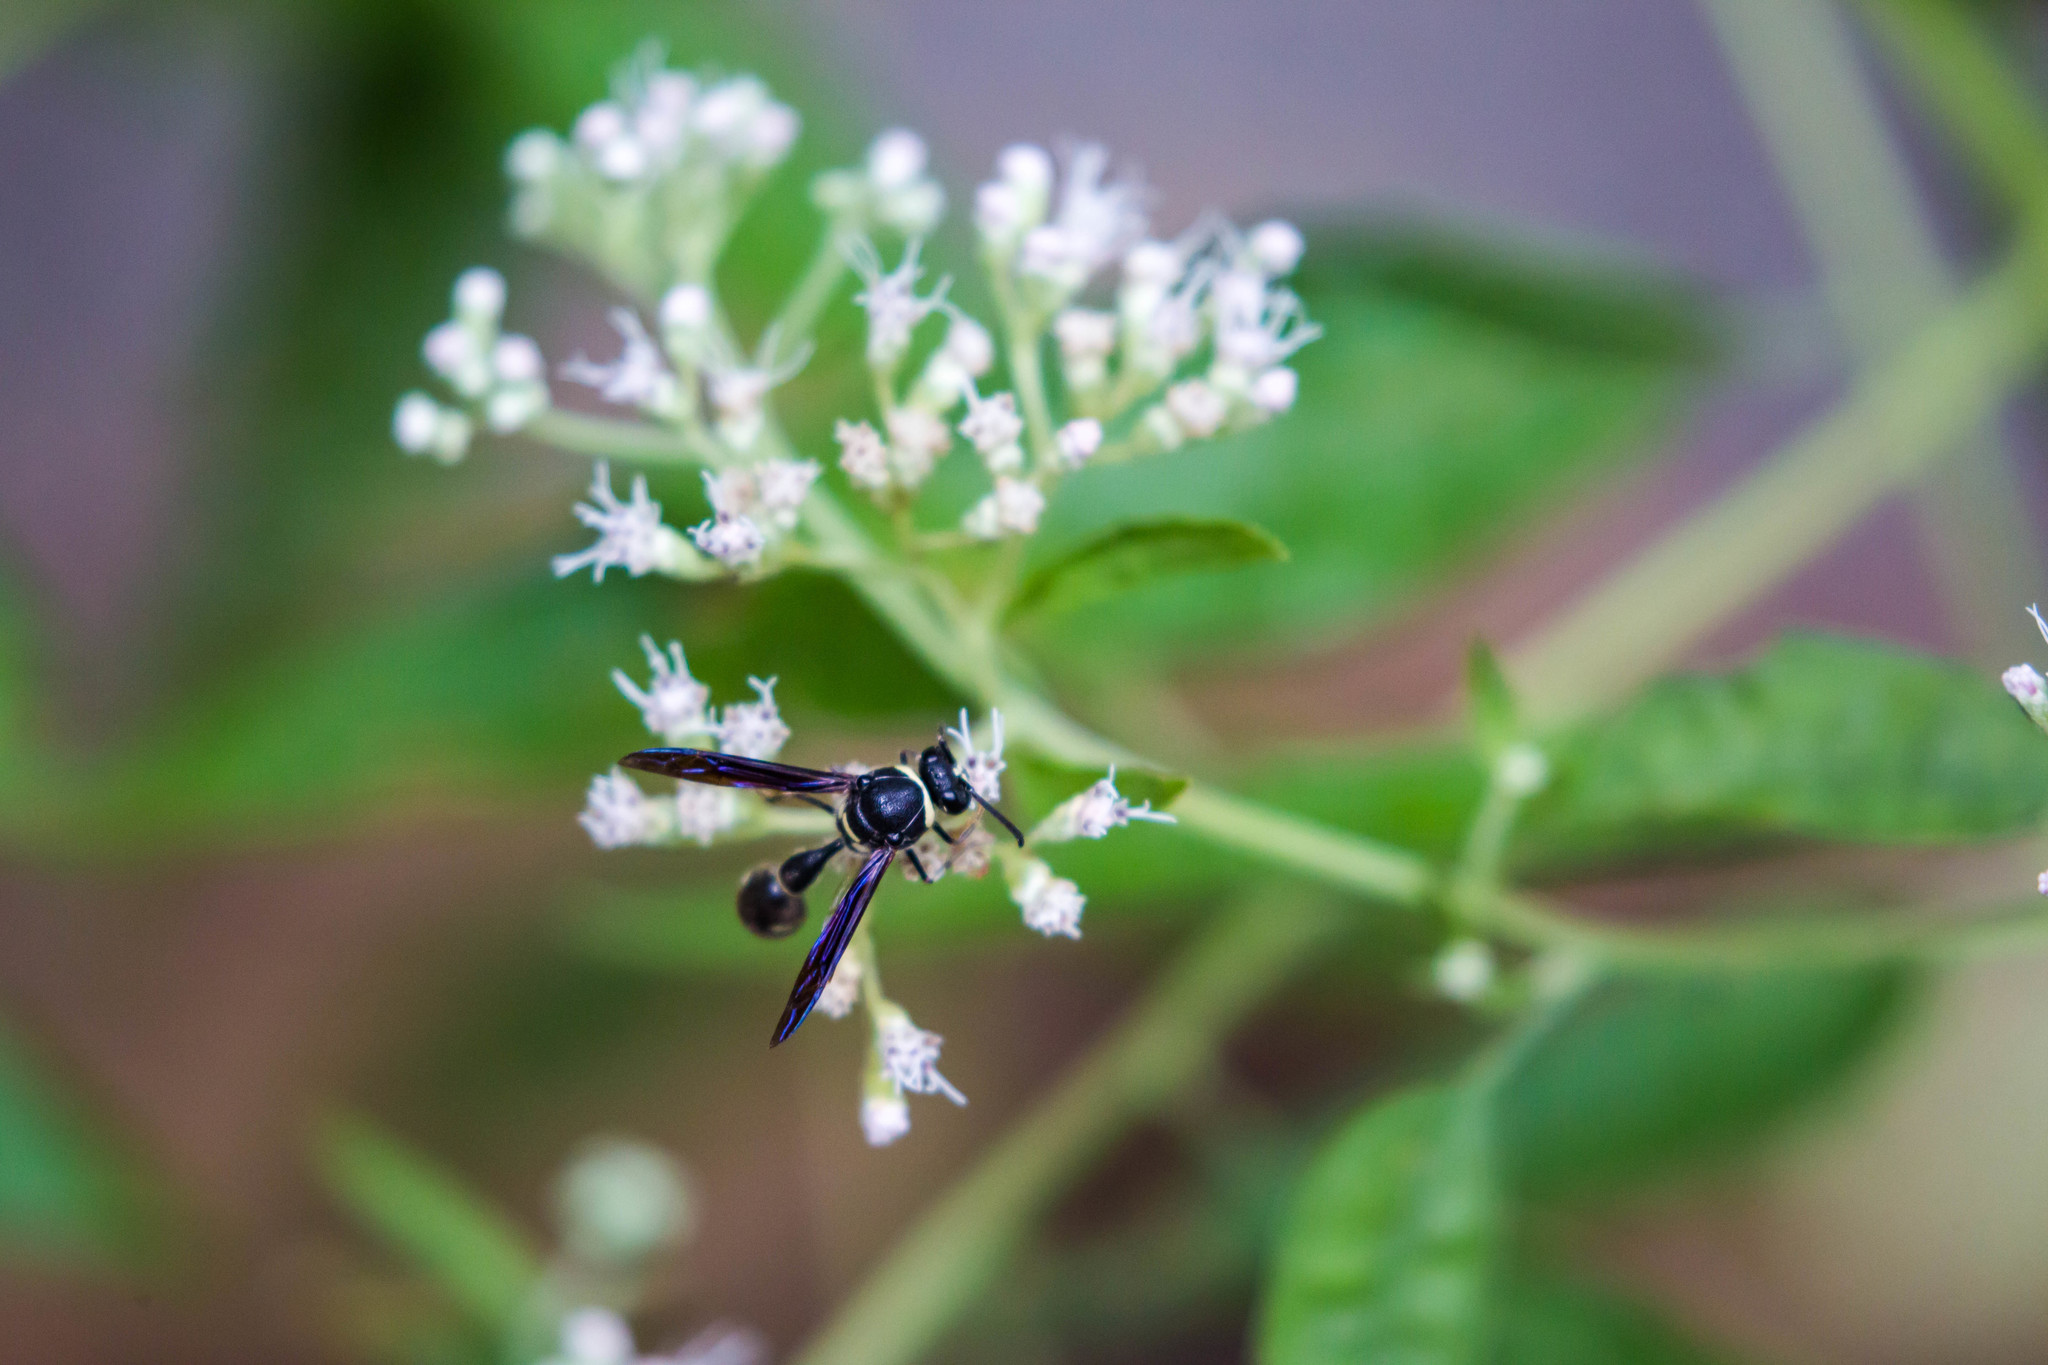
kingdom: Animalia
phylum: Arthropoda
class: Insecta
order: Hymenoptera
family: Vespidae
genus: Eumenes
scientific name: Eumenes fraternus
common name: Fraternal potter wasp
